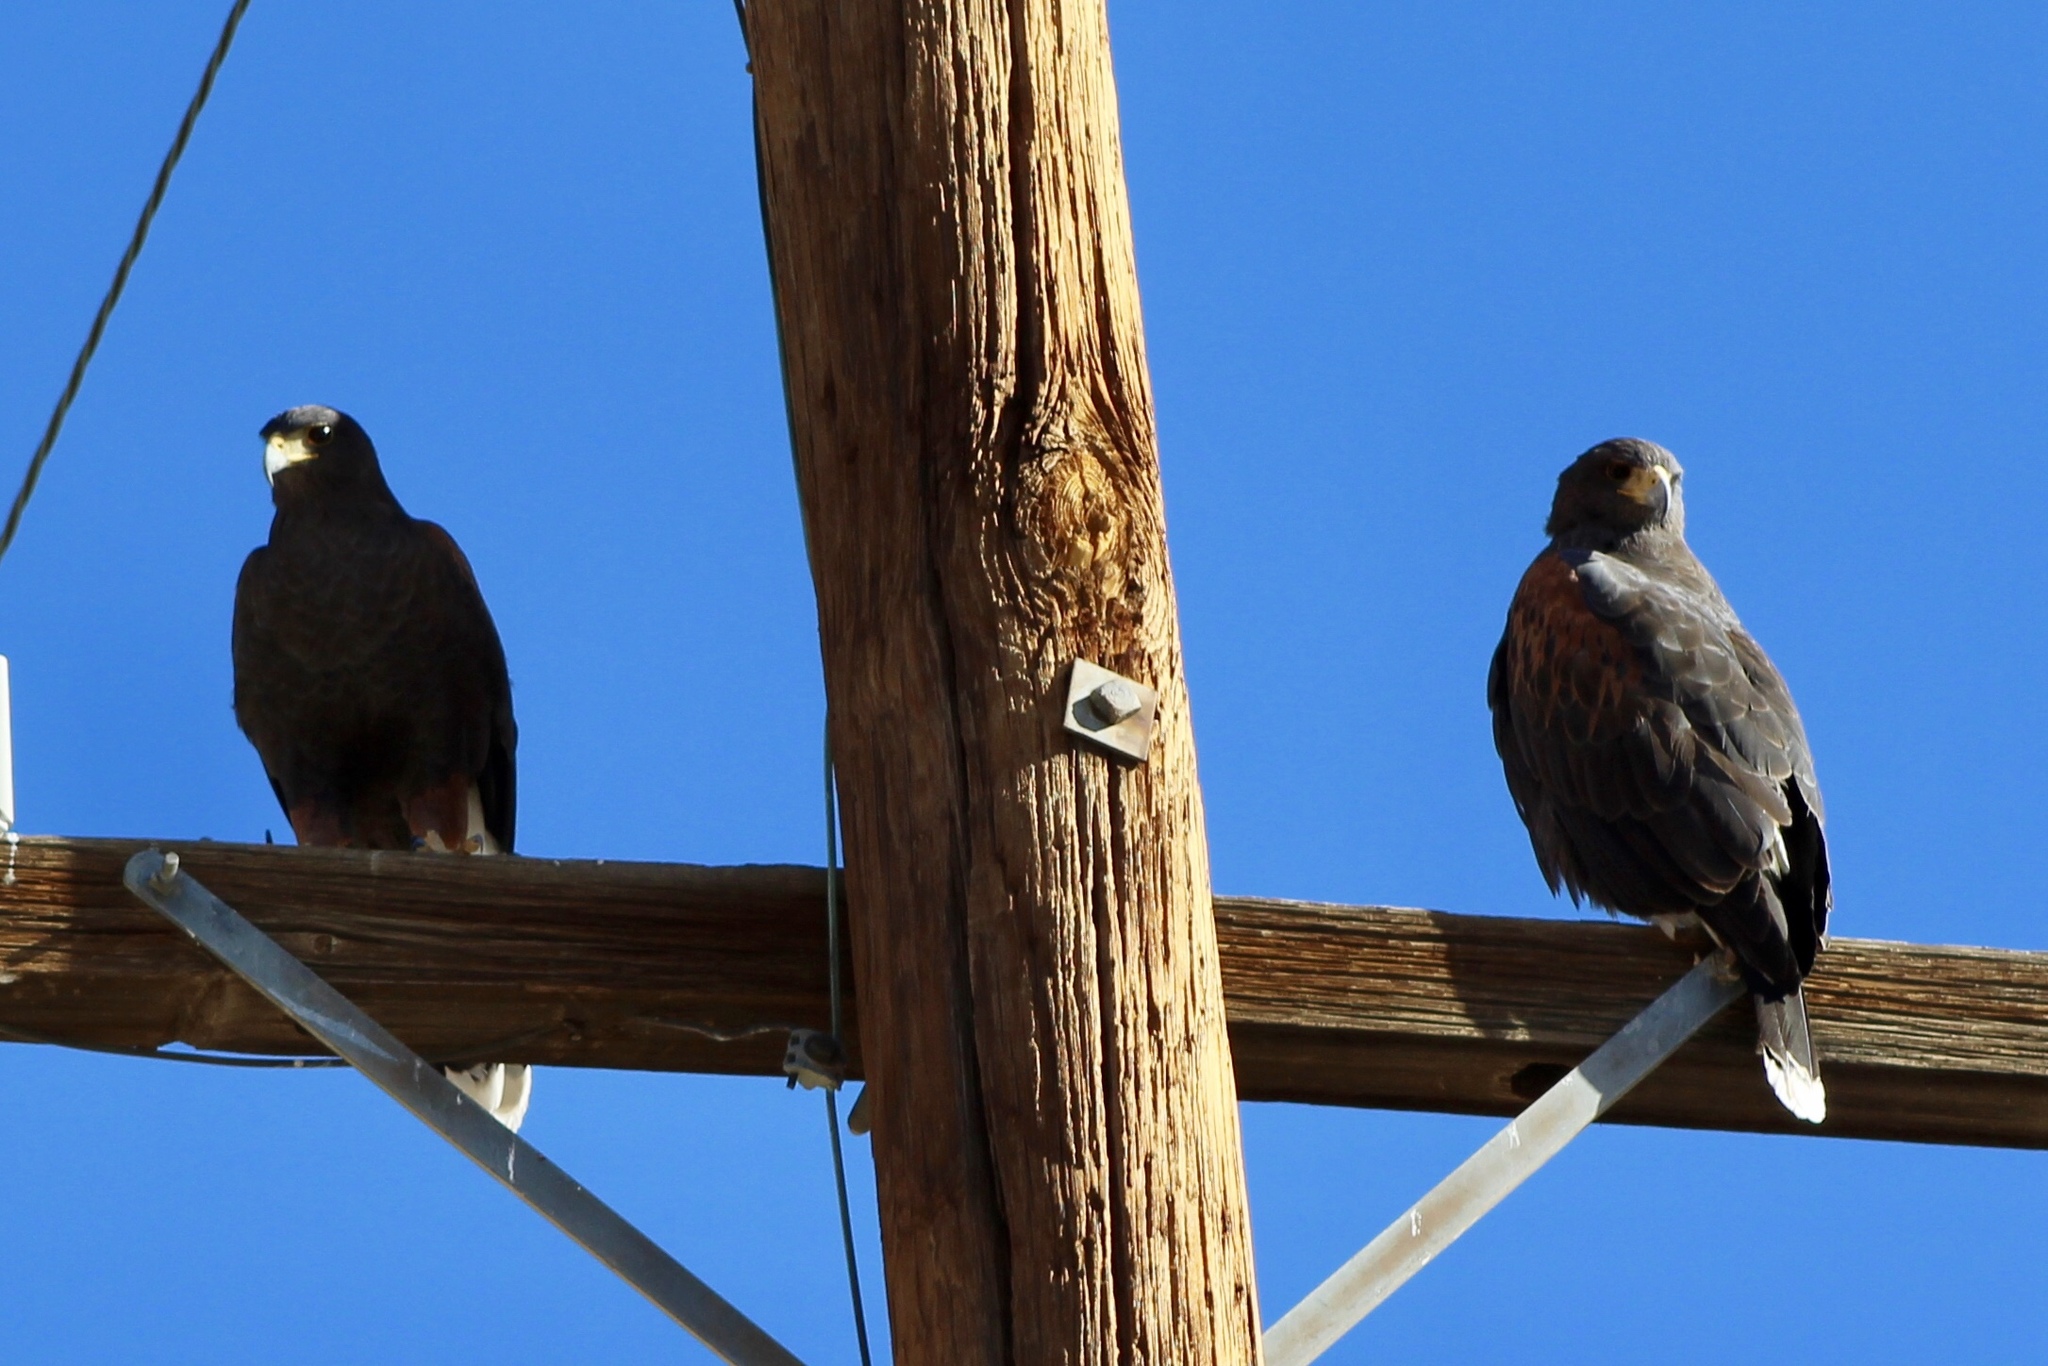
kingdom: Animalia
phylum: Chordata
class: Aves
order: Accipitriformes
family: Accipitridae
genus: Parabuteo
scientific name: Parabuteo unicinctus
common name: Harris's hawk
